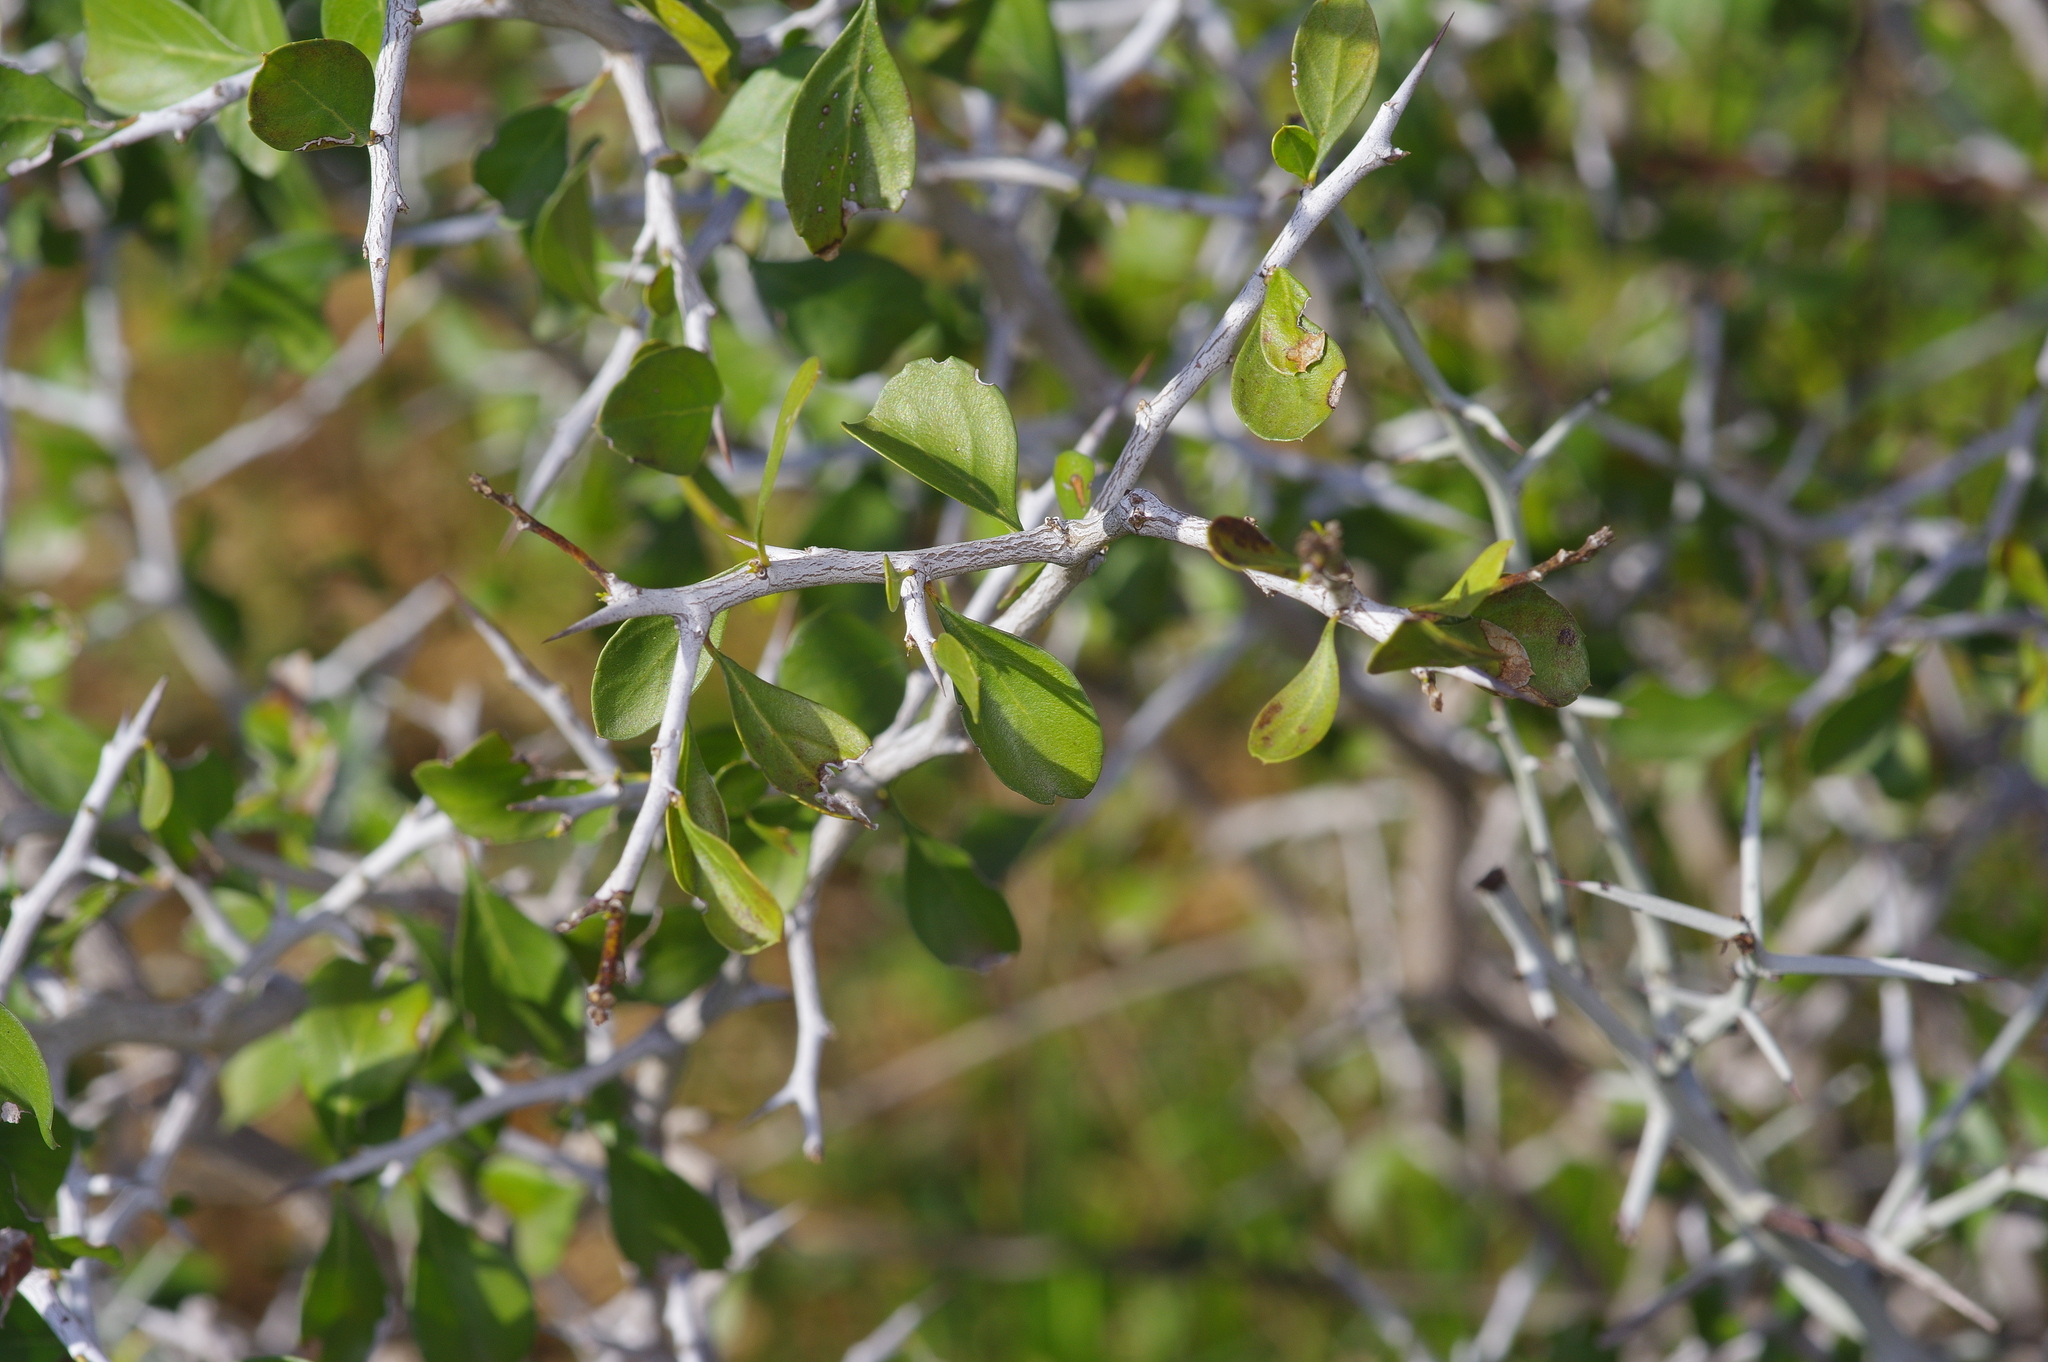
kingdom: Plantae
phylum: Tracheophyta
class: Magnoliopsida
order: Rosales
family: Rhamnaceae
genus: Condalia
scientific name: Condalia hookeri
